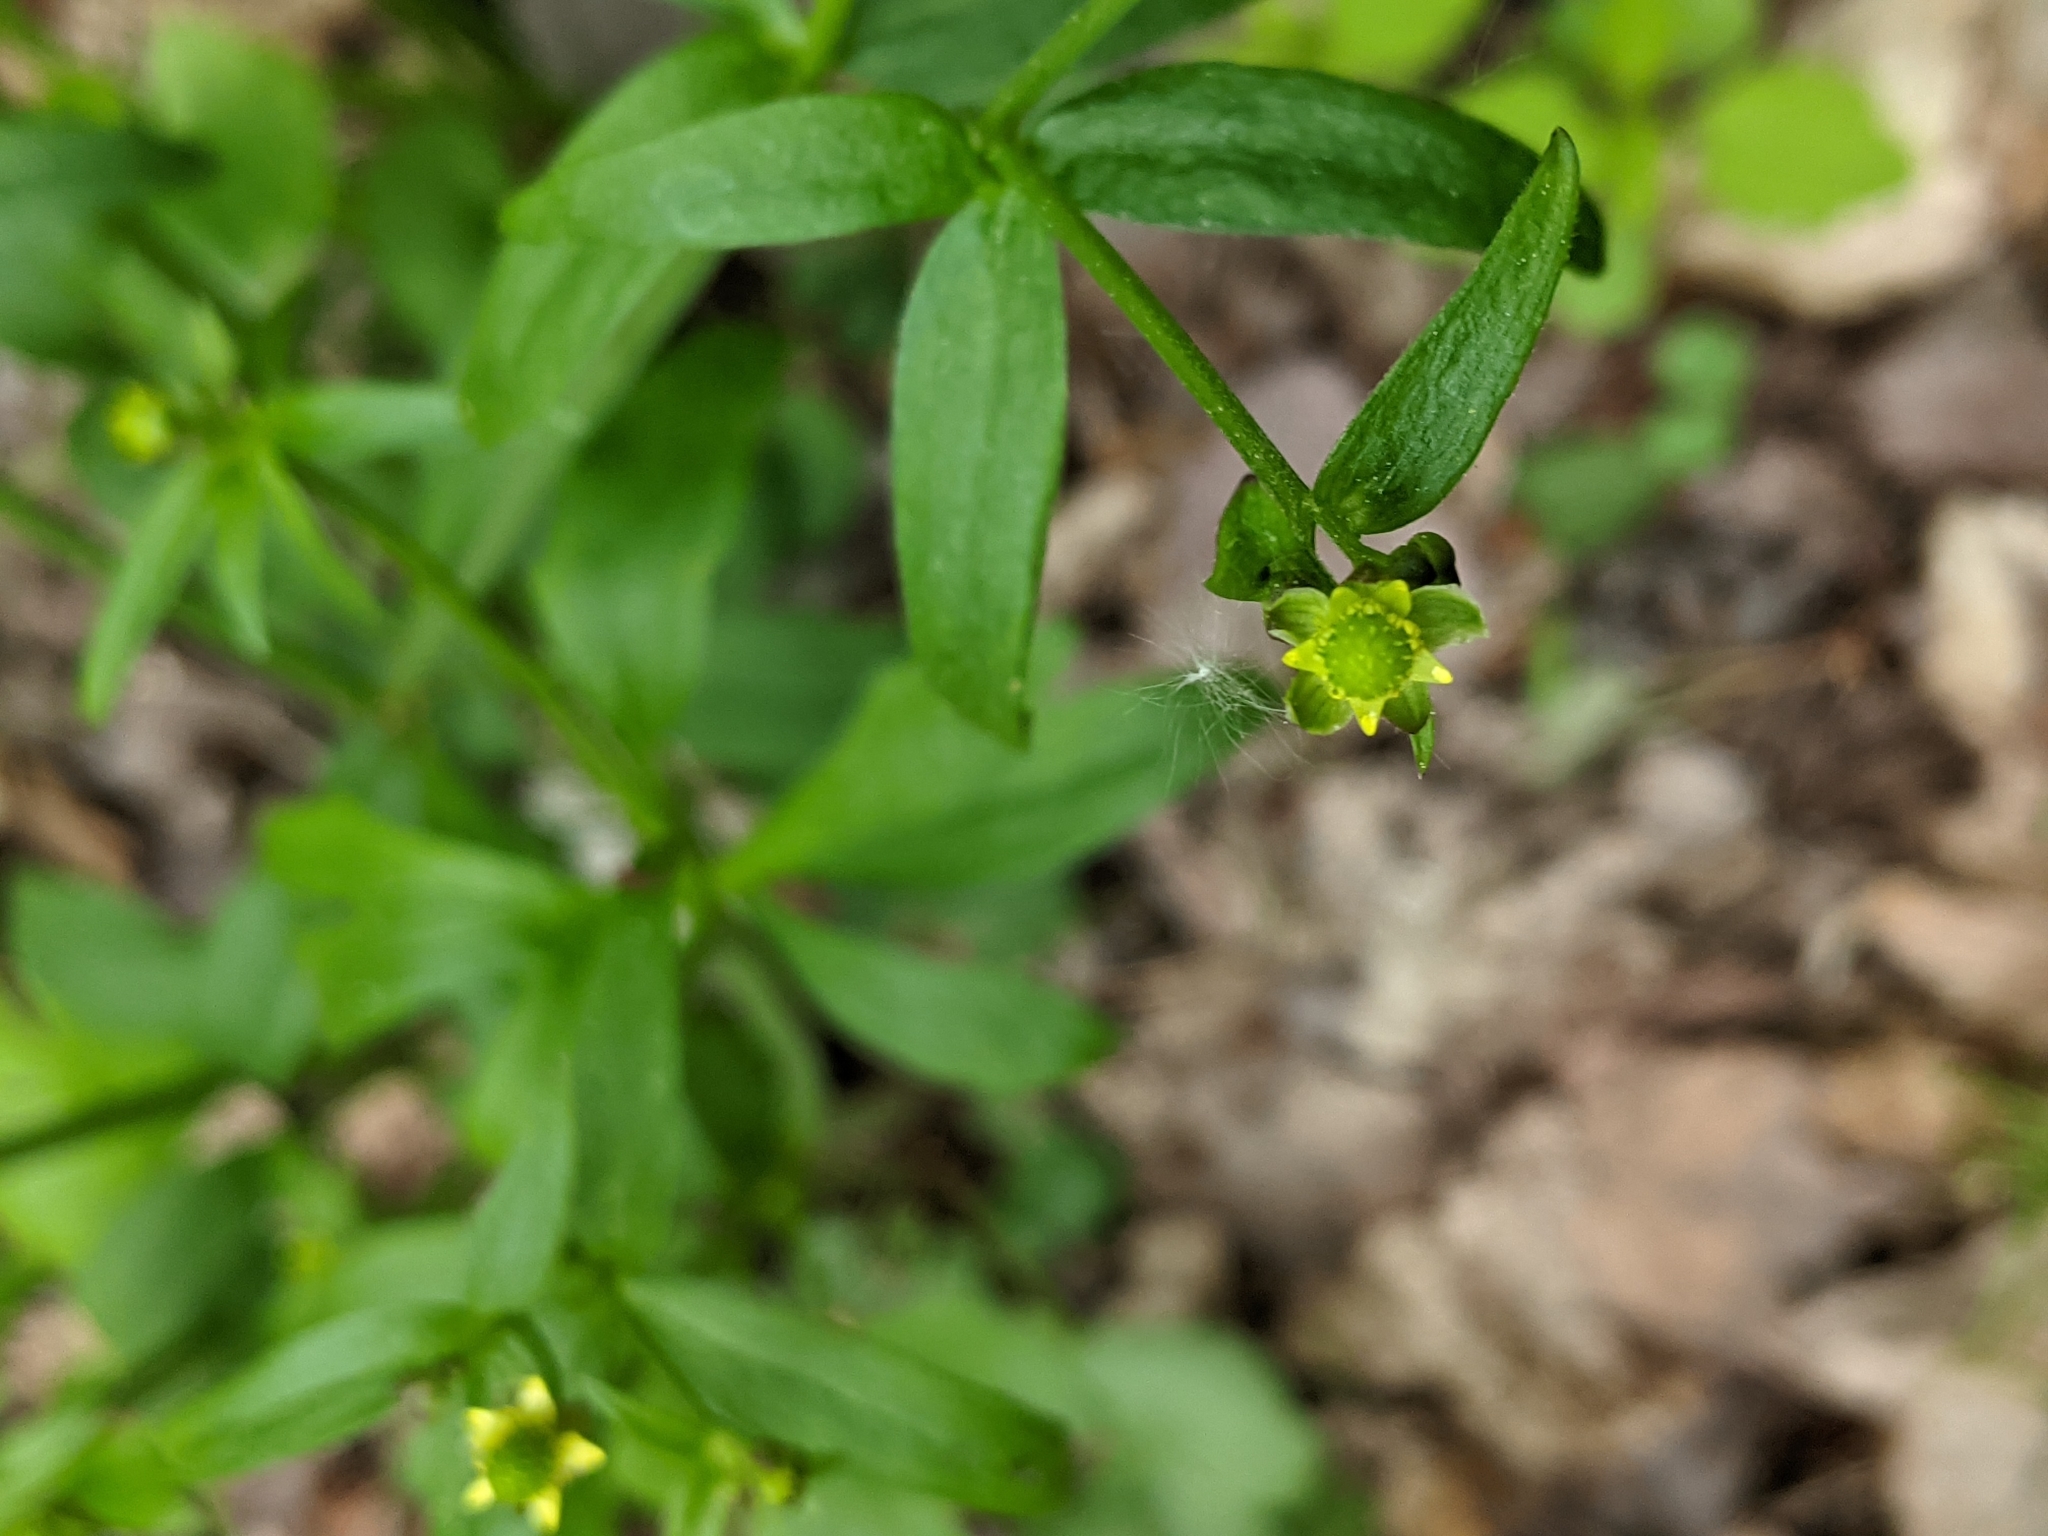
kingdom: Plantae
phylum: Tracheophyta
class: Magnoliopsida
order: Ranunculales
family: Ranunculaceae
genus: Ranunculus
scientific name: Ranunculus abortivus
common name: Early wood buttercup
